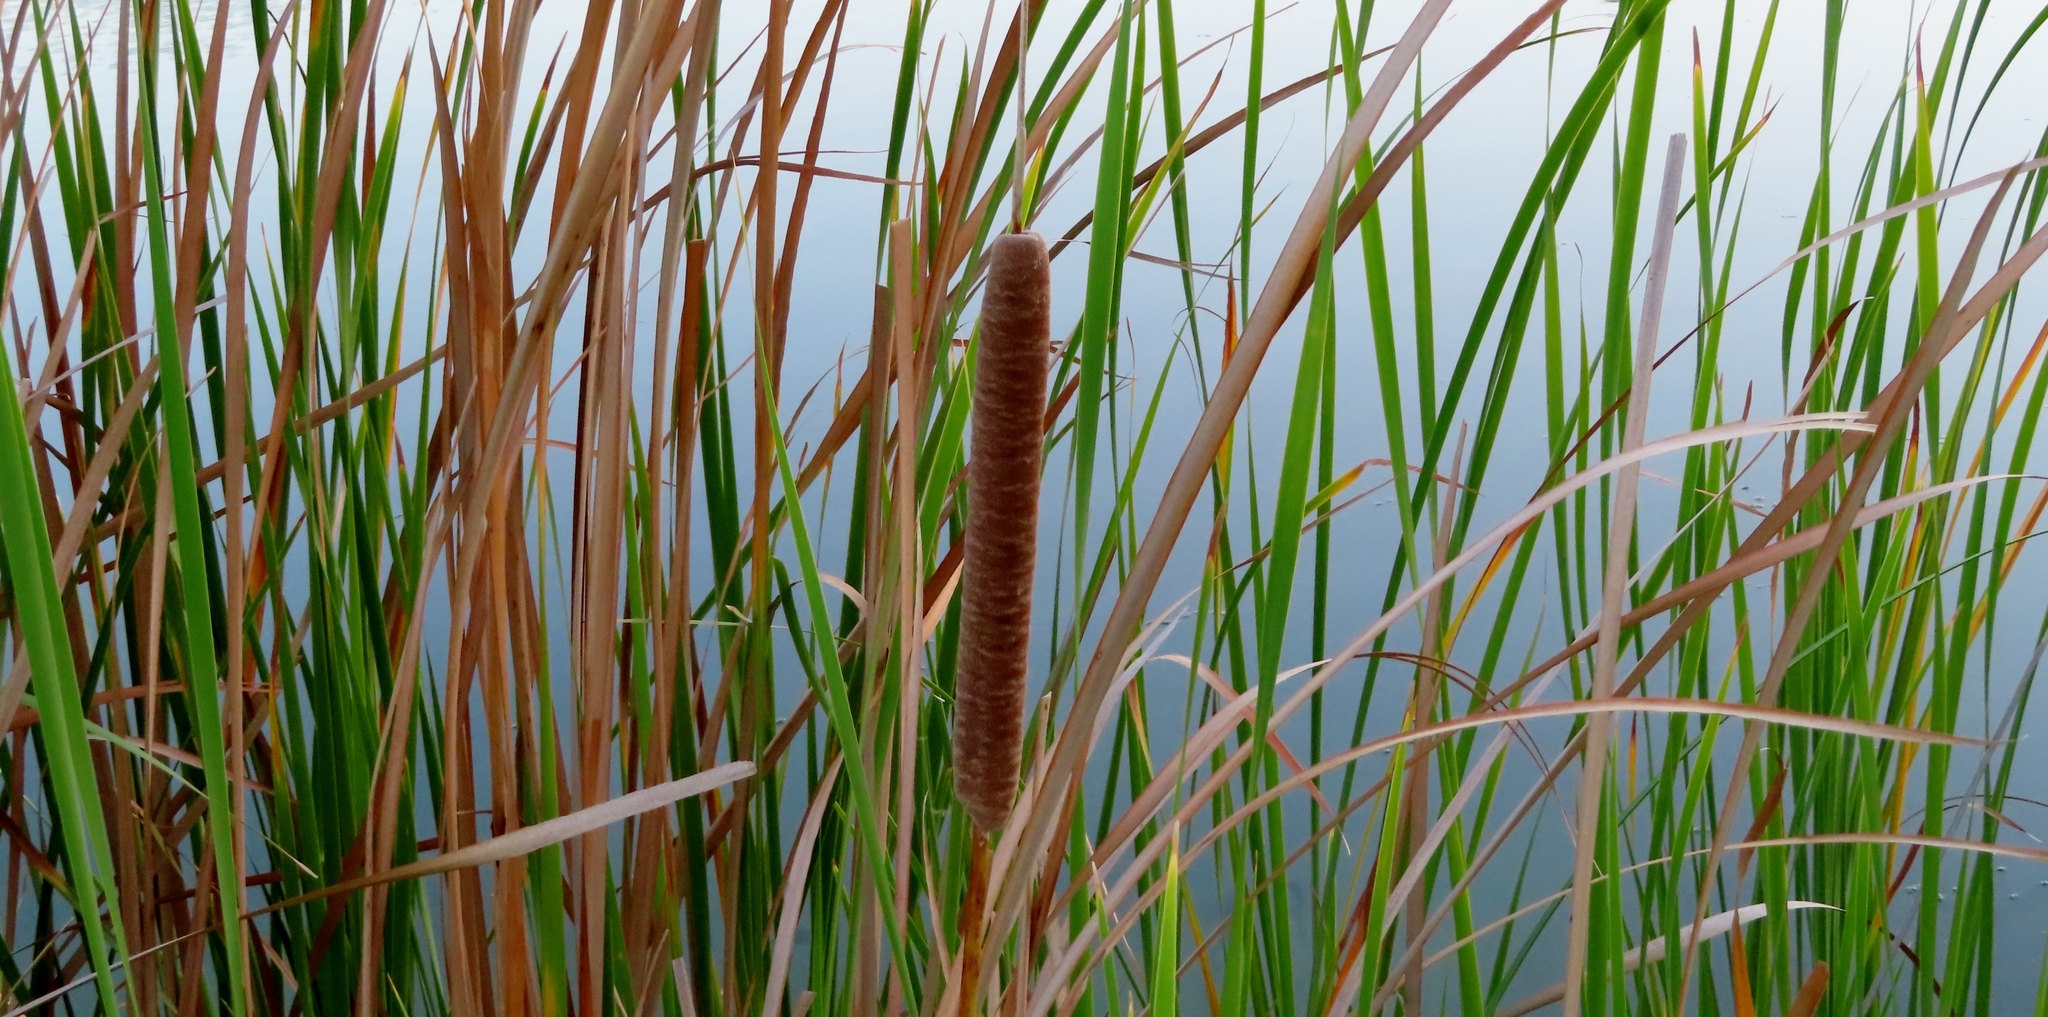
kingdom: Plantae
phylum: Tracheophyta
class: Liliopsida
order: Poales
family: Typhaceae
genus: Typha
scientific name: Typha capensis
